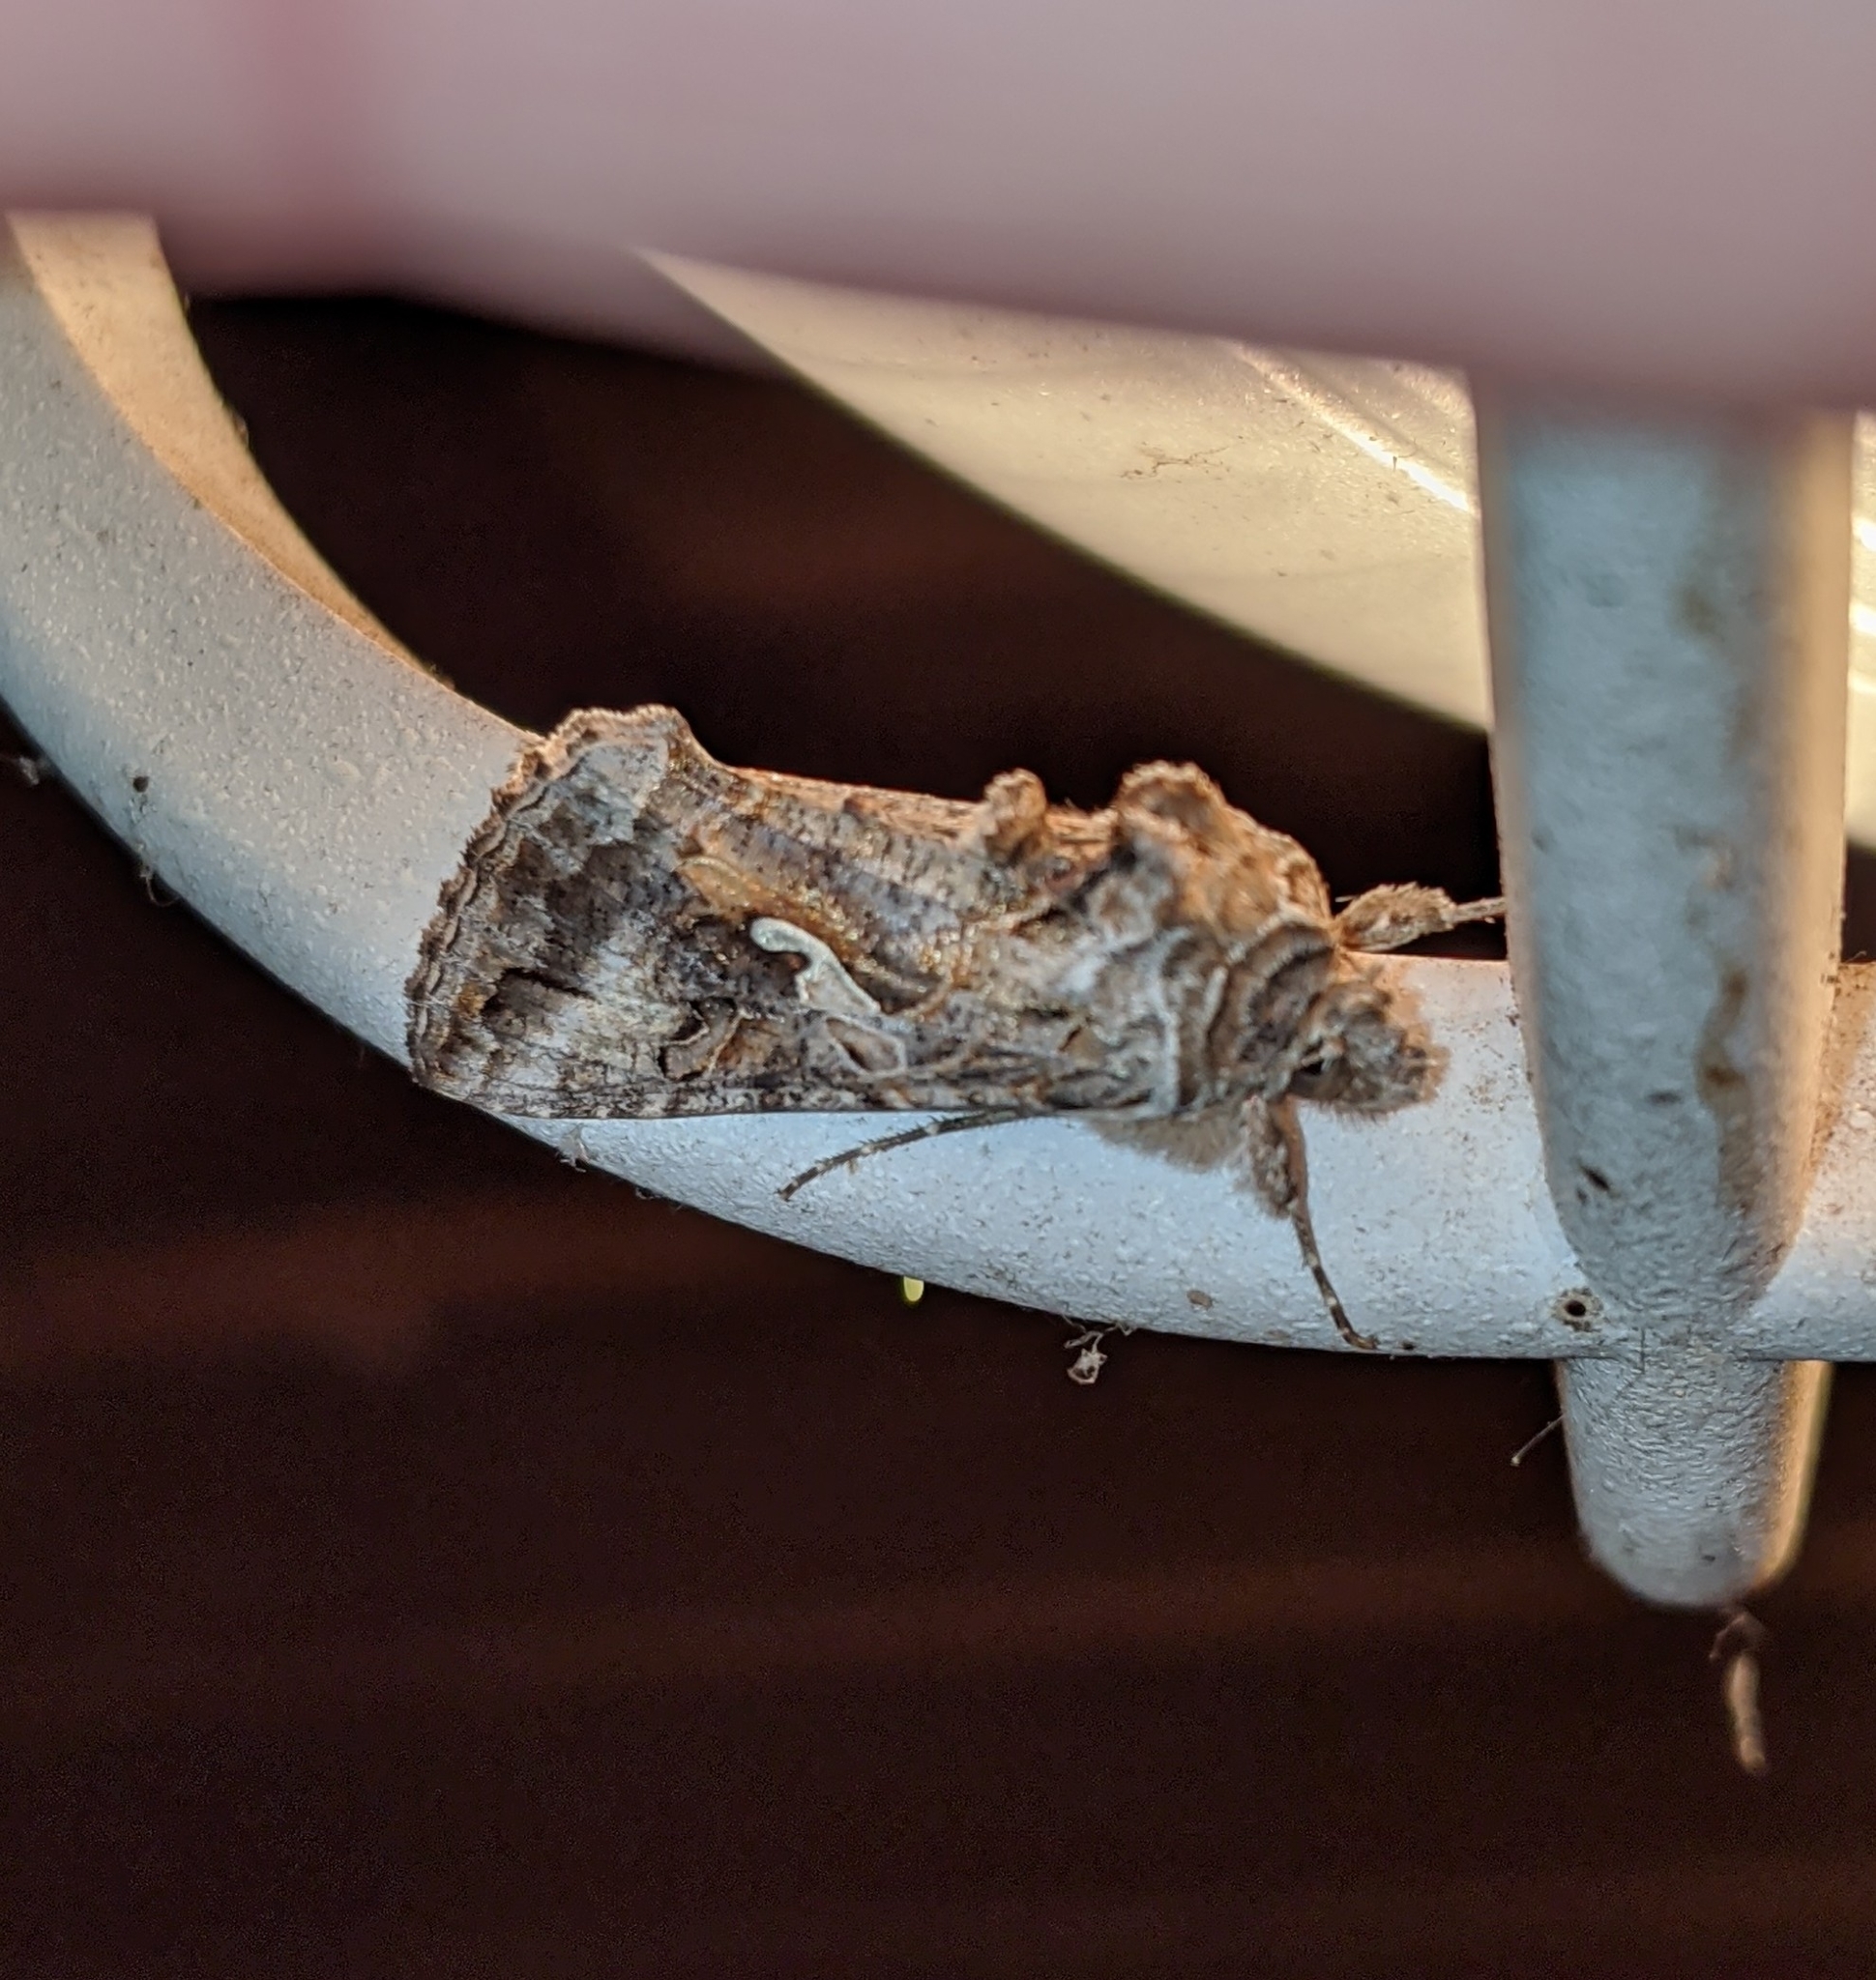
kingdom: Animalia
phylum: Arthropoda
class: Insecta
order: Lepidoptera
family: Noctuidae
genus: Autographa
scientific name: Autographa californica
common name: Alfalfa looper
